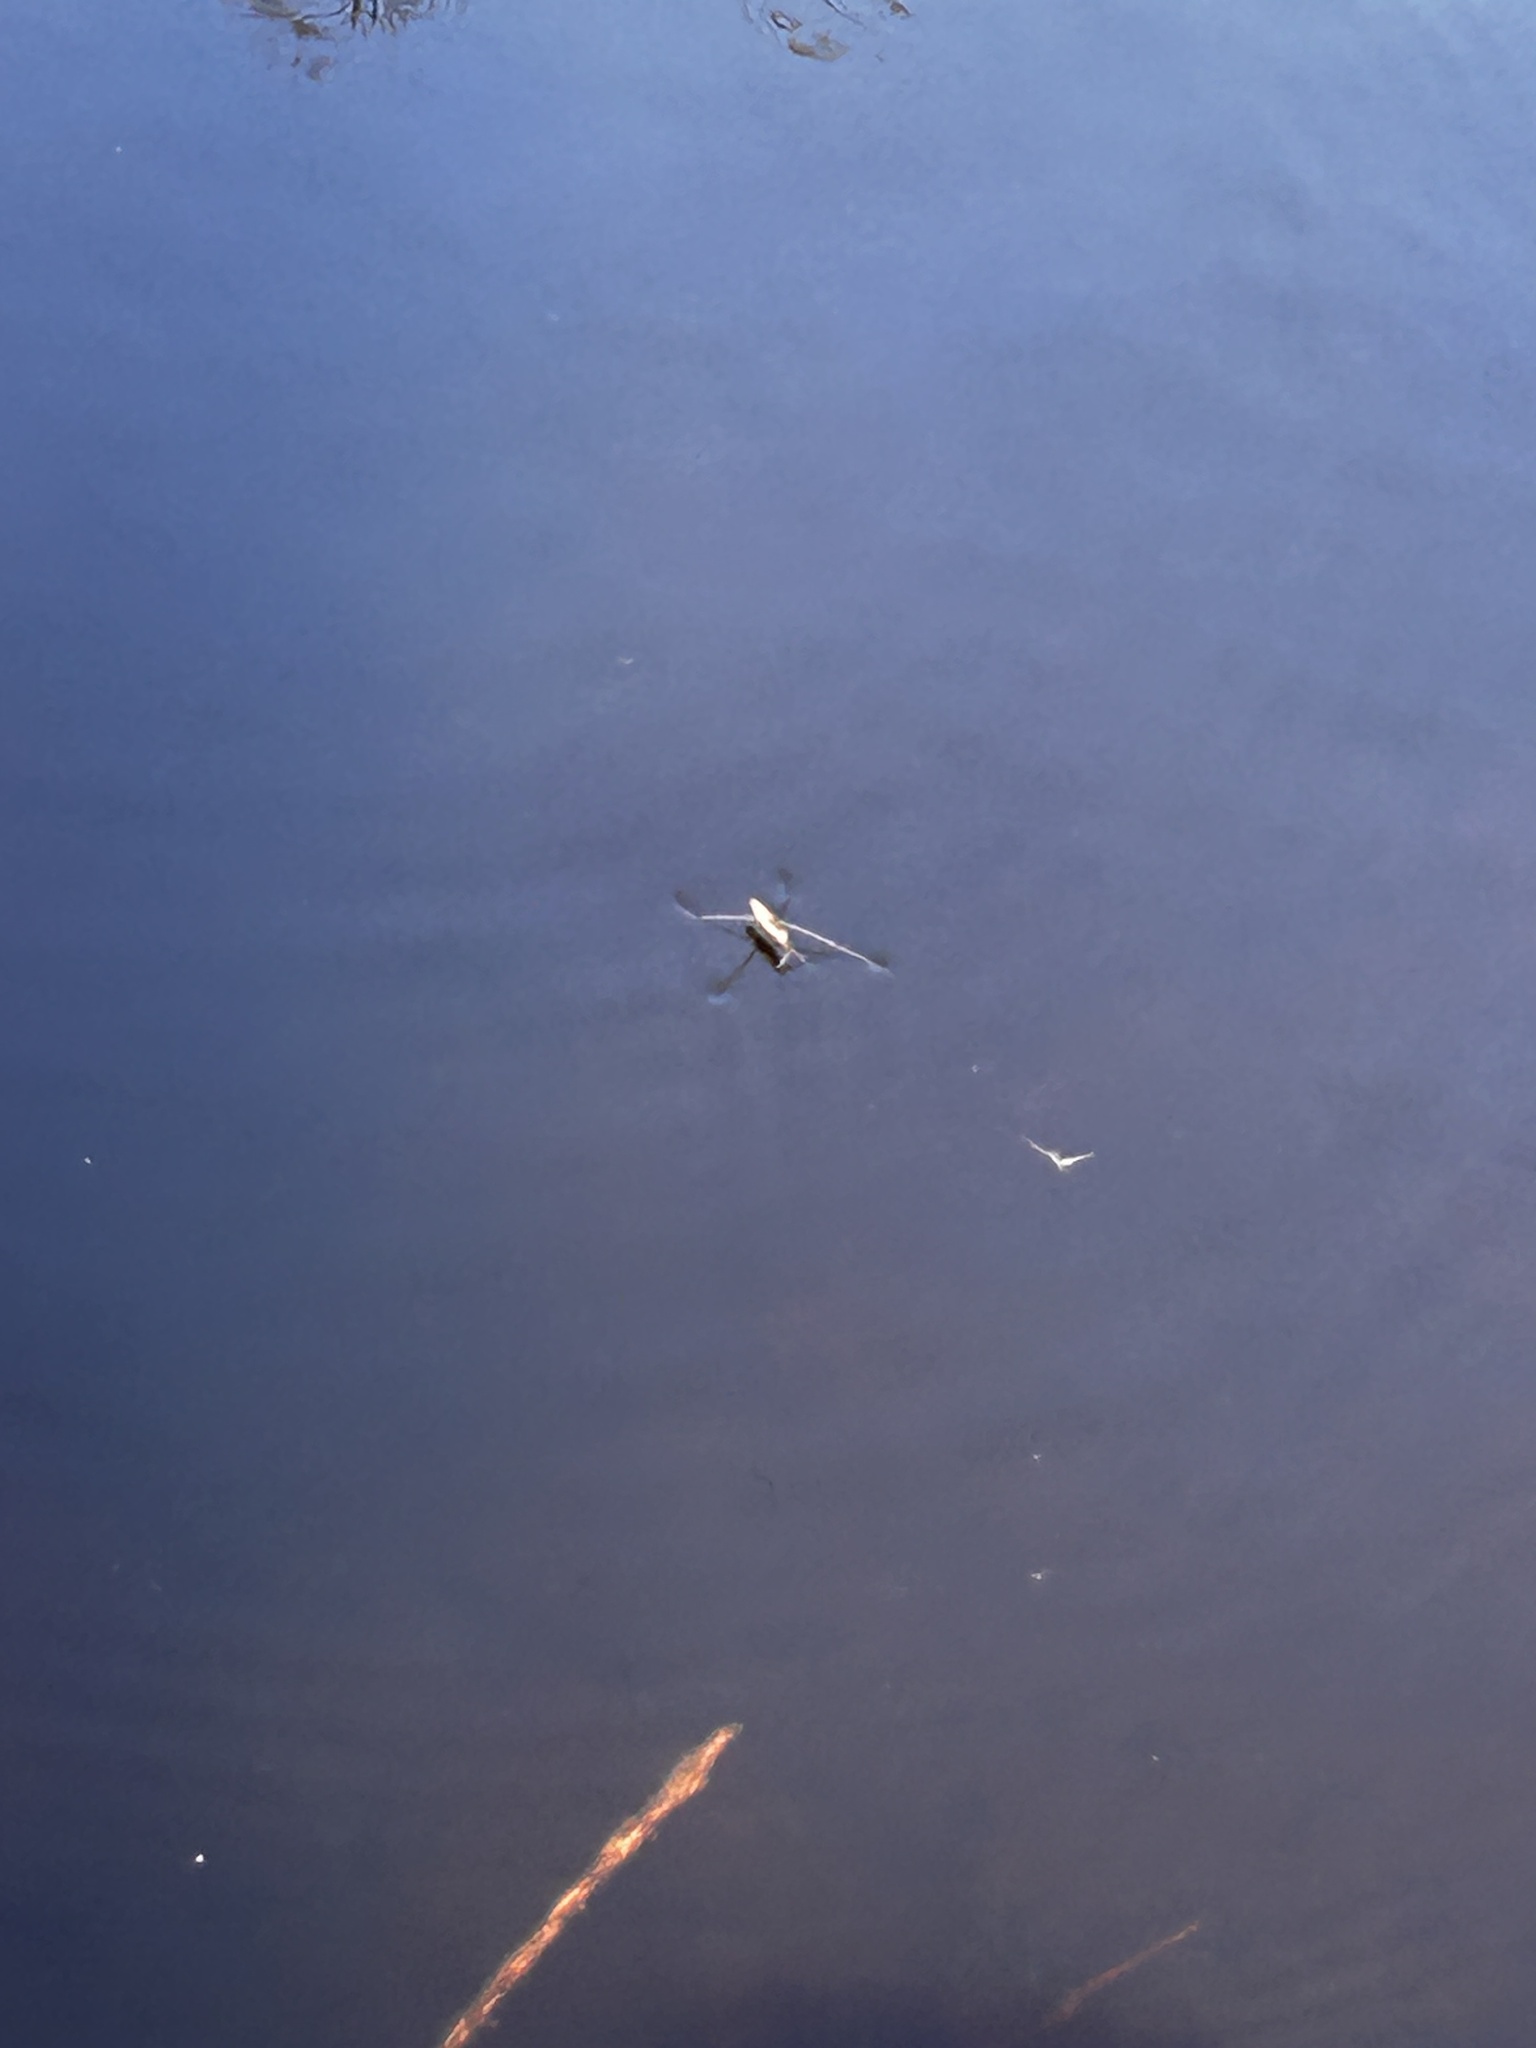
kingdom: Animalia
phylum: Arthropoda
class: Insecta
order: Hemiptera
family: Gerridae
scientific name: Gerridae
